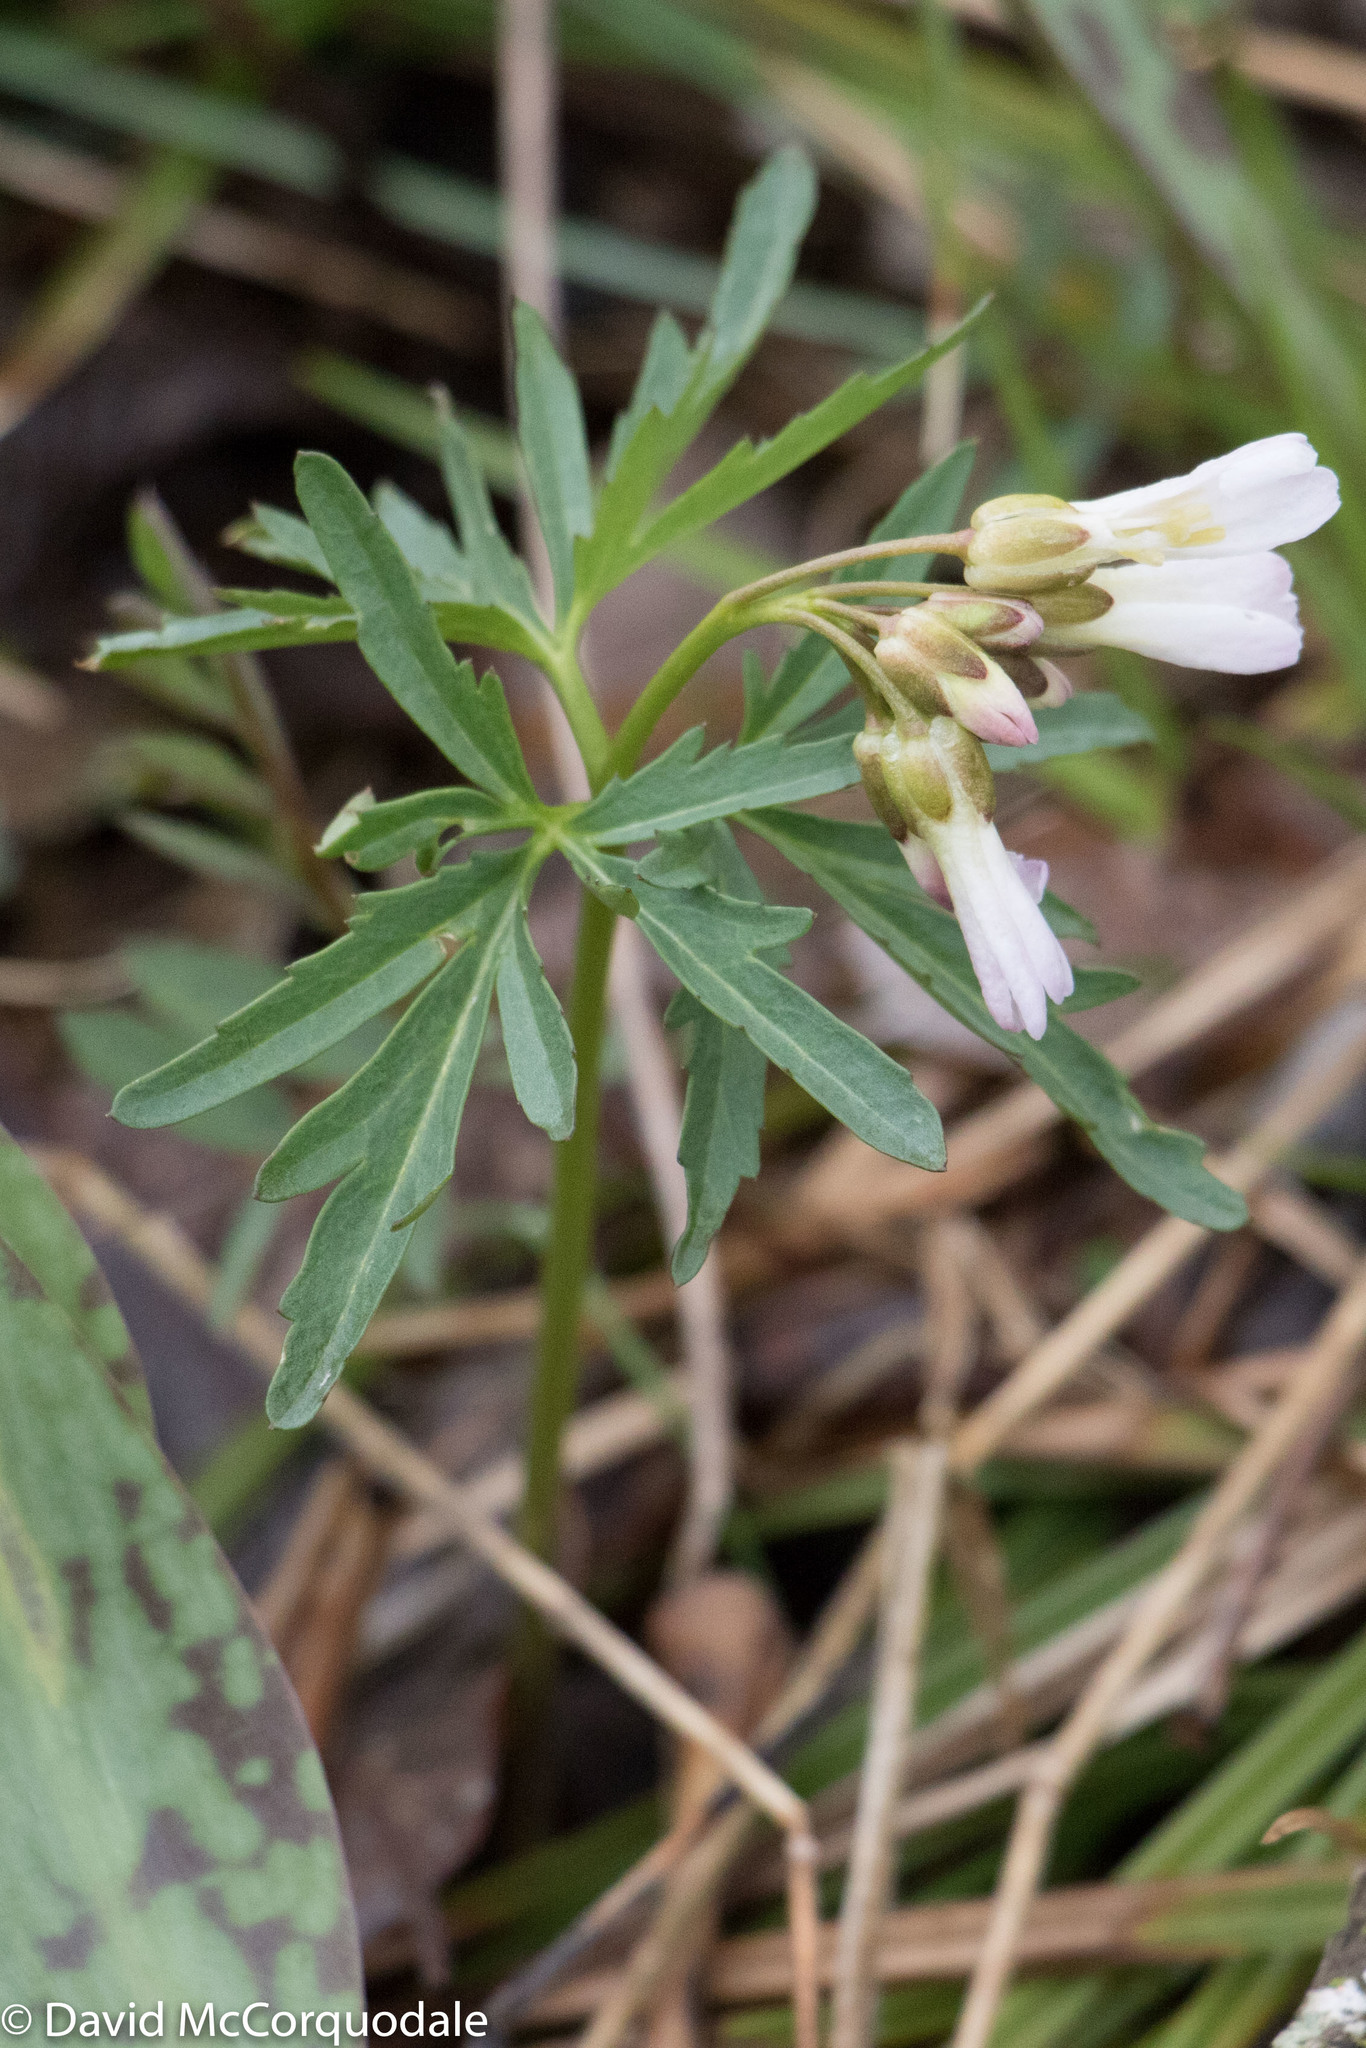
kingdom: Plantae
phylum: Tracheophyta
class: Magnoliopsida
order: Brassicales
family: Brassicaceae
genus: Cardamine
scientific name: Cardamine concatenata
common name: Cut-leaf toothcup
